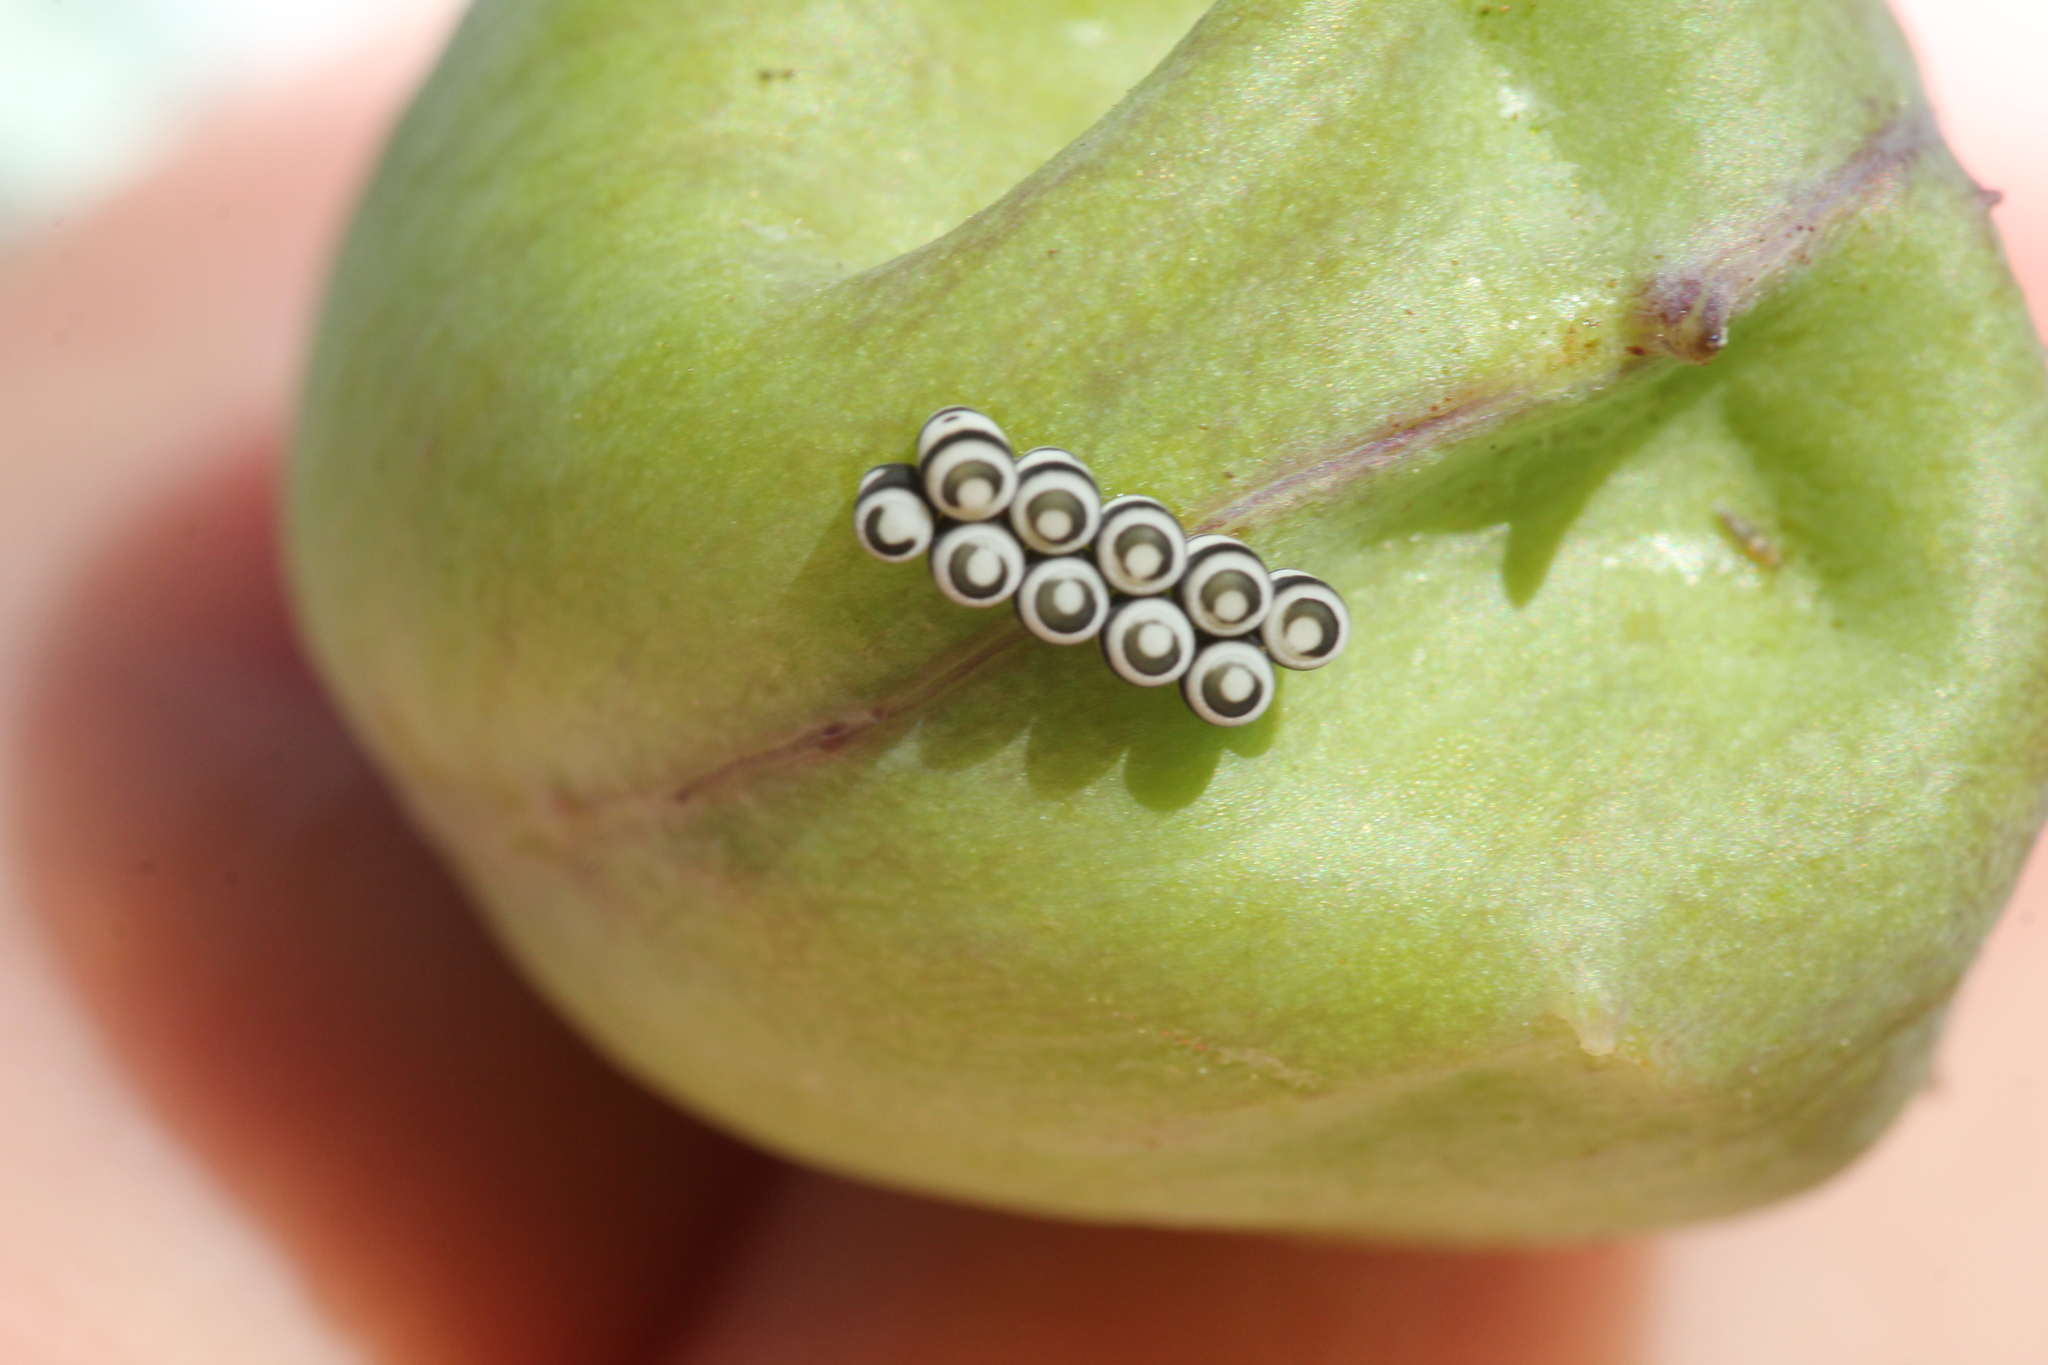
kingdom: Animalia
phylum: Arthropoda
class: Insecta
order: Hemiptera
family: Pentatomidae
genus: Murgantia
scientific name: Murgantia histrionica
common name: Harlequin bug
